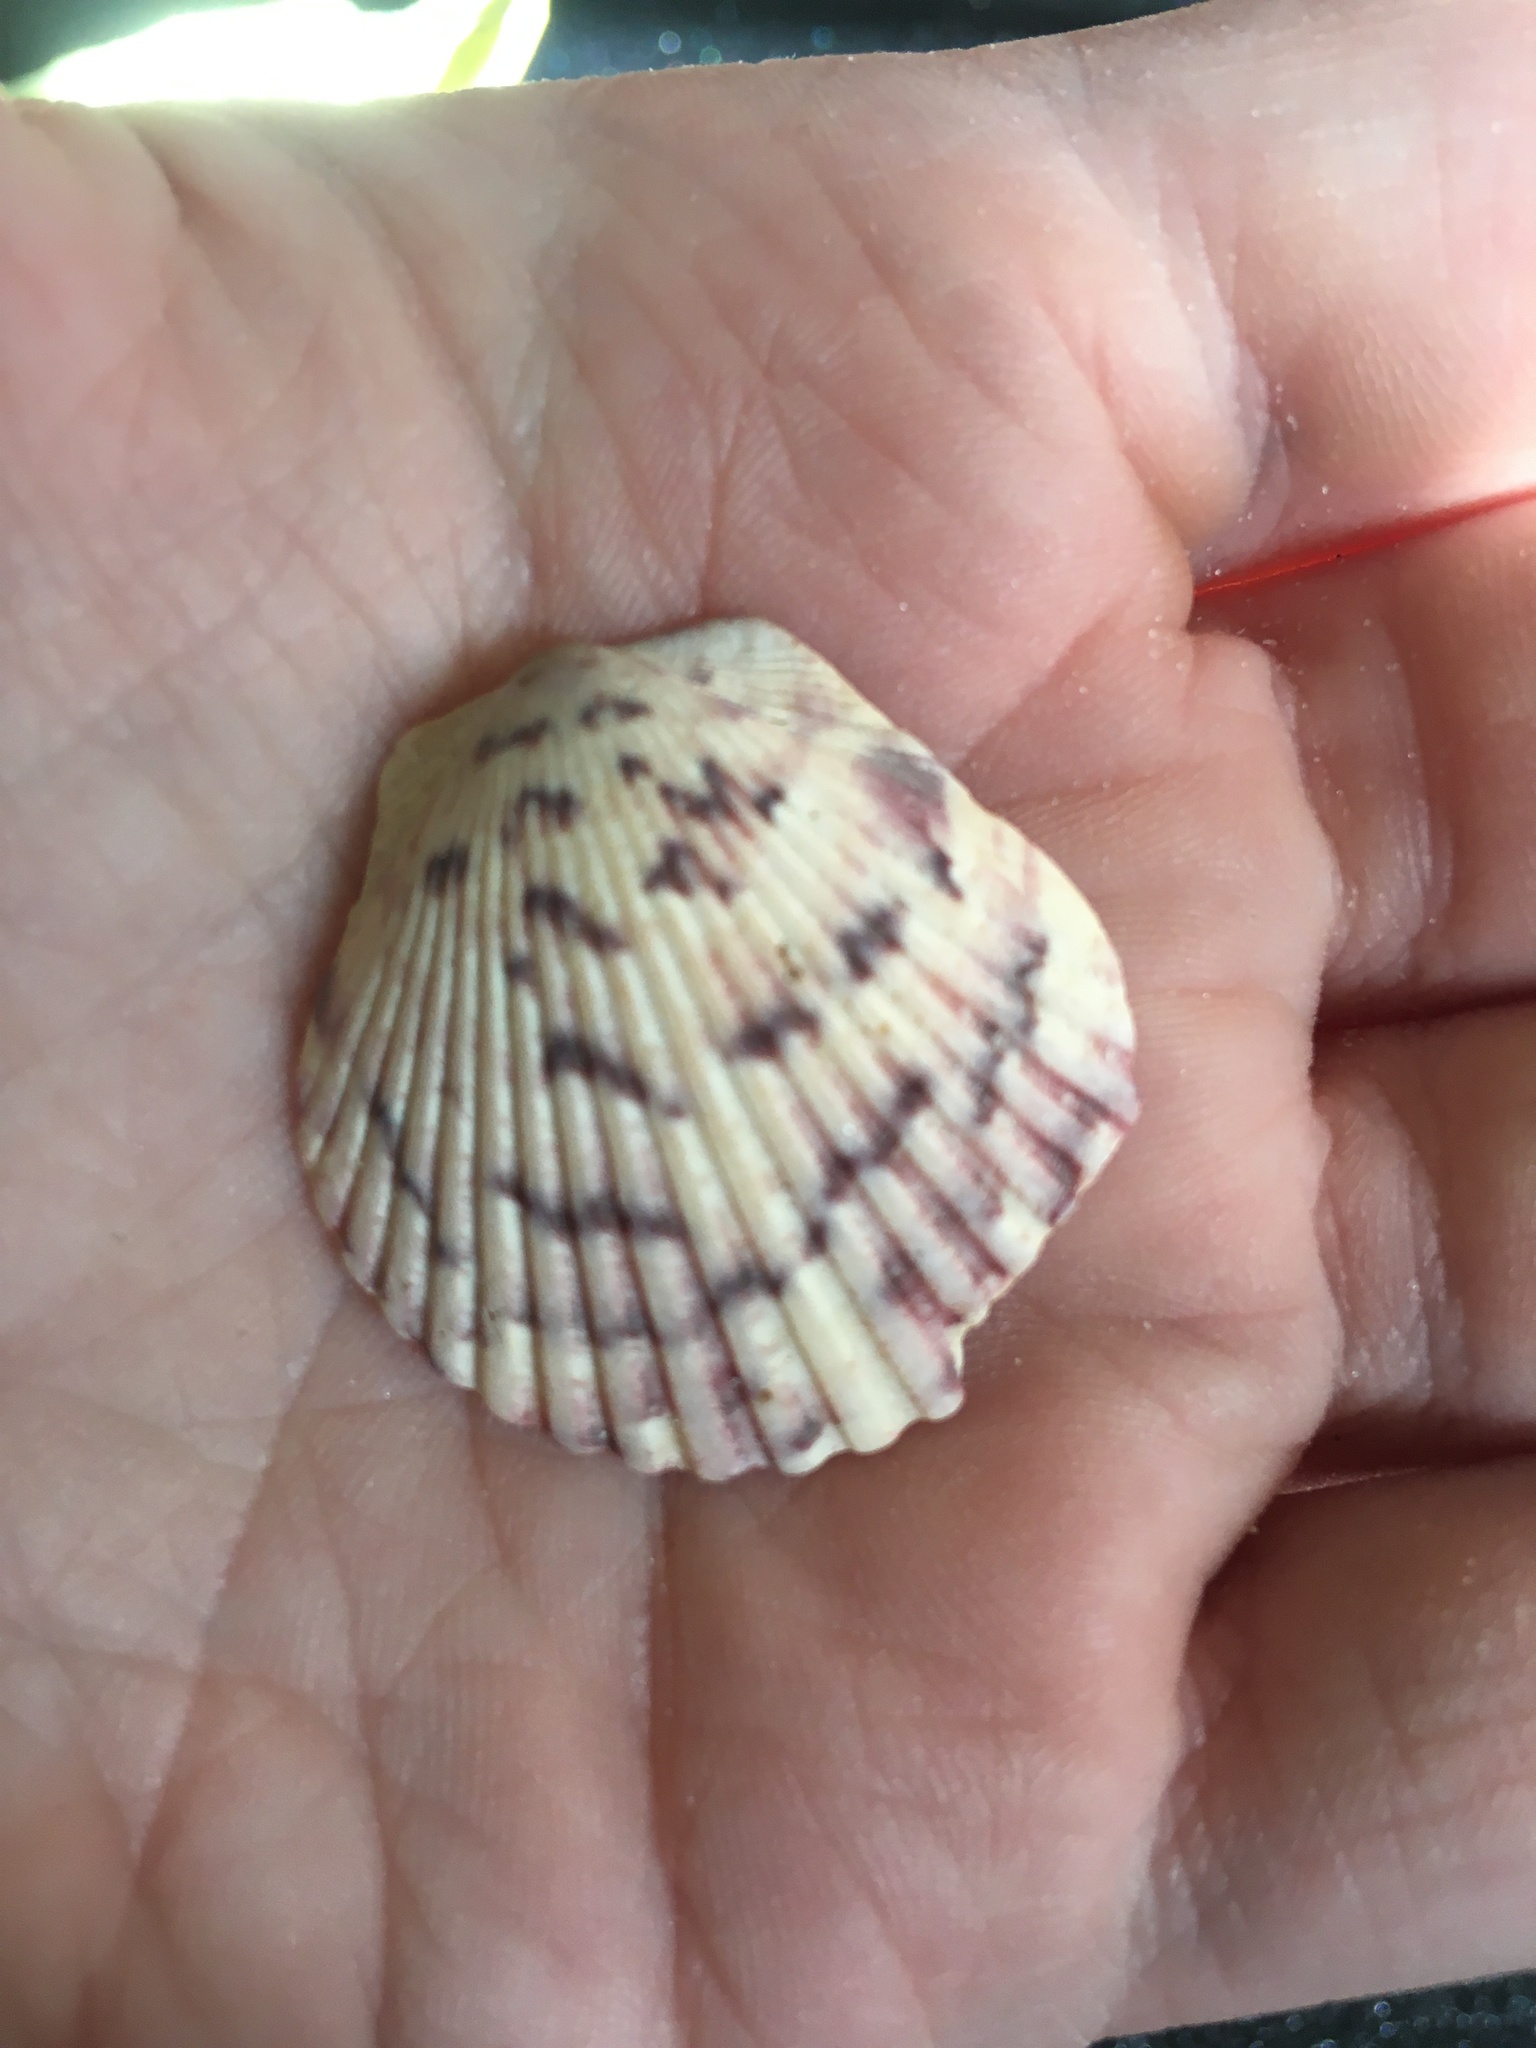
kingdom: Animalia
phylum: Mollusca
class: Bivalvia
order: Pectinida
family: Pectinidae
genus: Argopecten
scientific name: Argopecten gibbus
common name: Atlantic calico scallop
